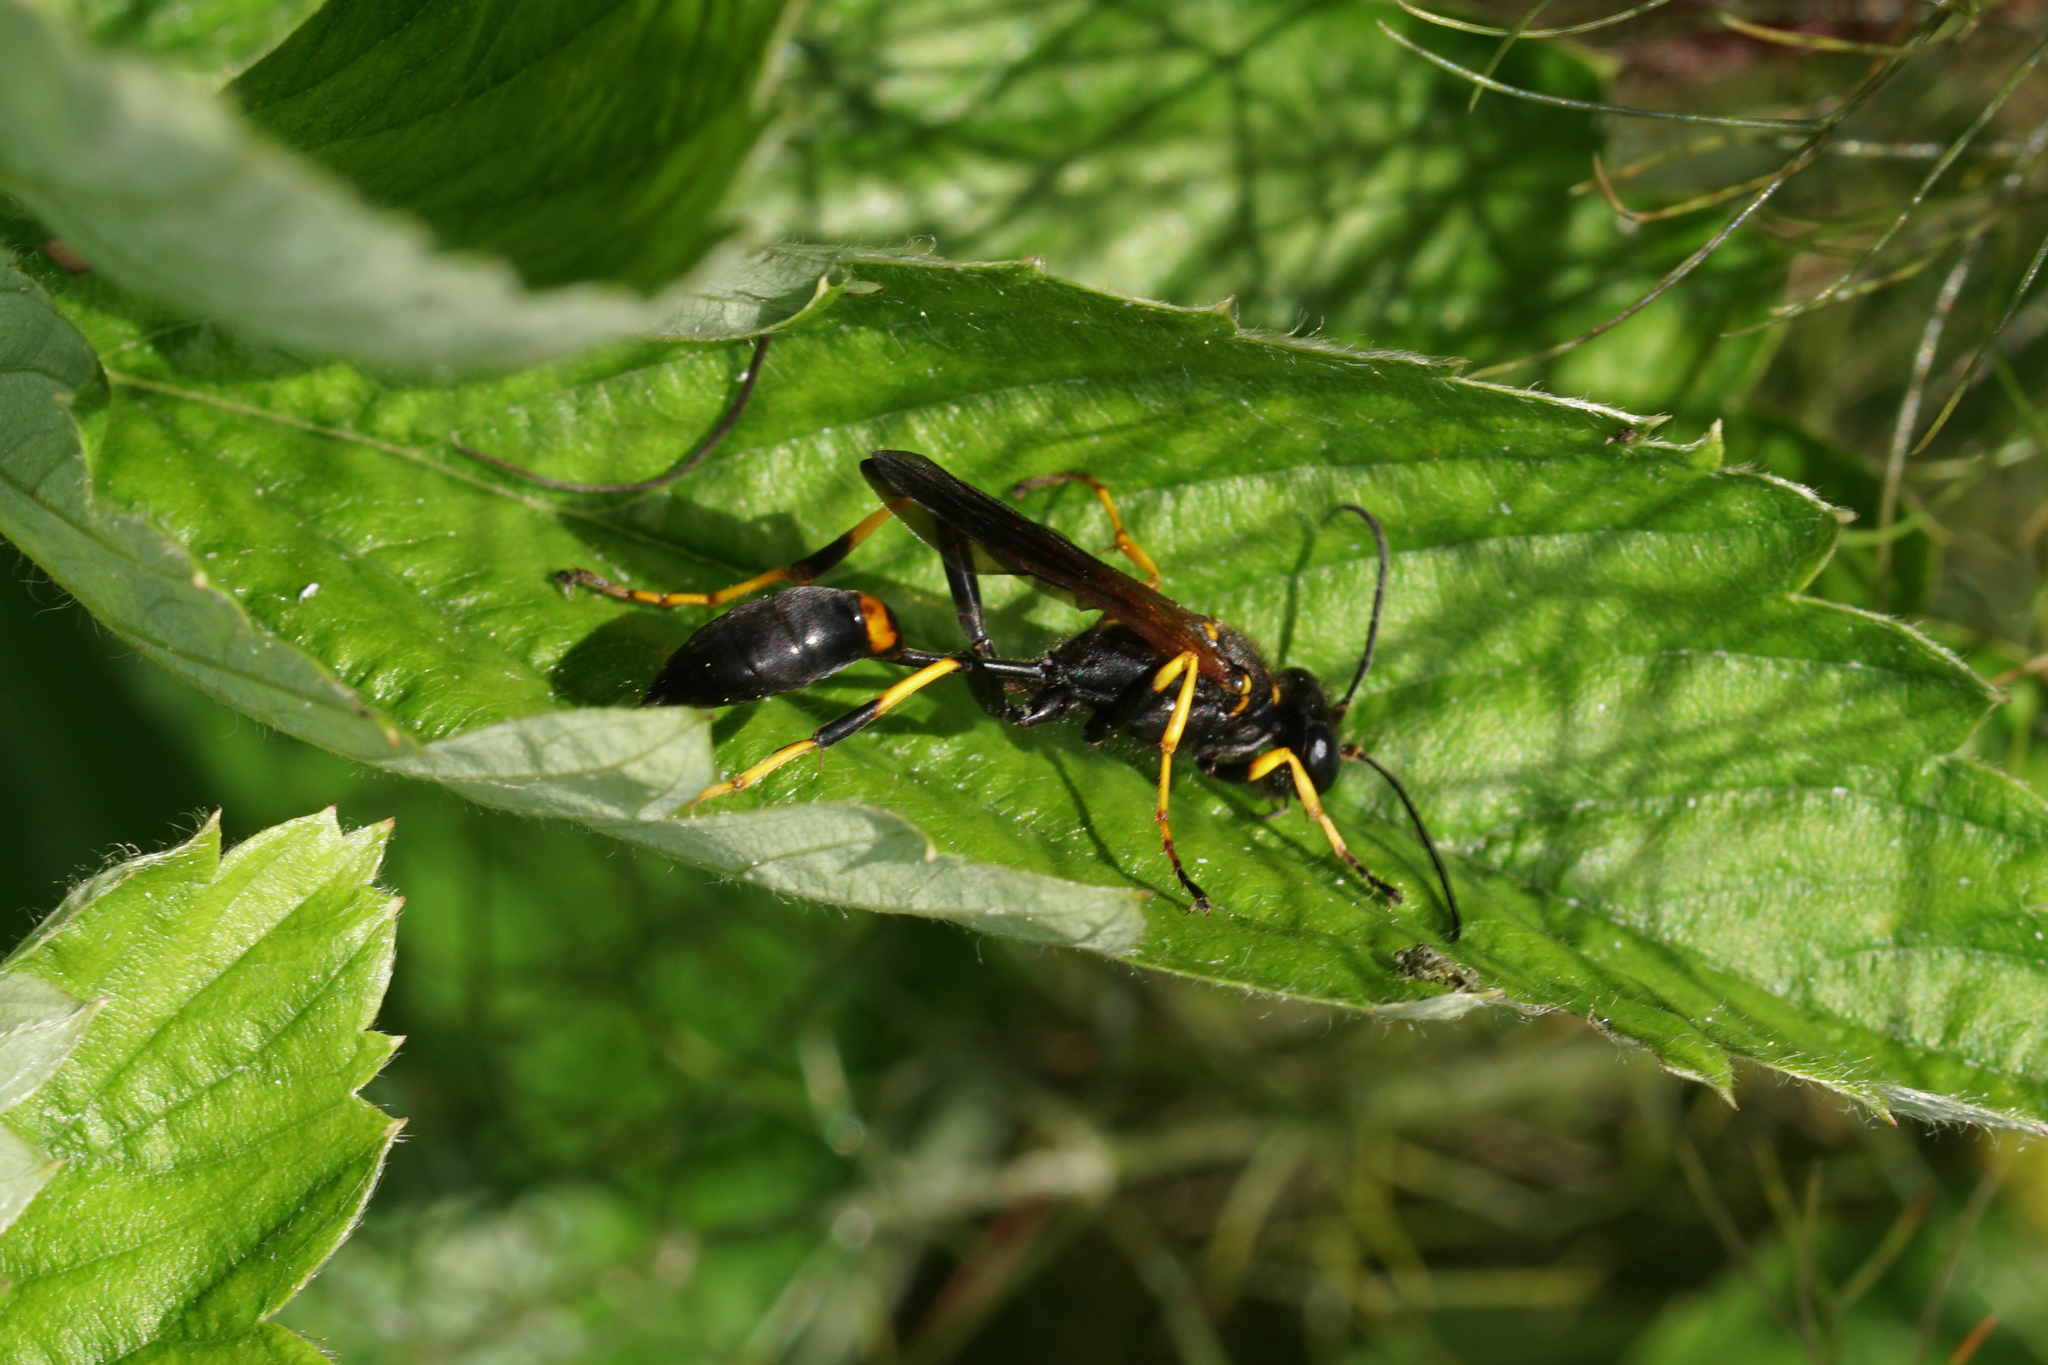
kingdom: Animalia
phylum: Arthropoda
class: Insecta
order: Hymenoptera
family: Sphecidae
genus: Sceliphron
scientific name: Sceliphron caementarium
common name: Mud dauber
